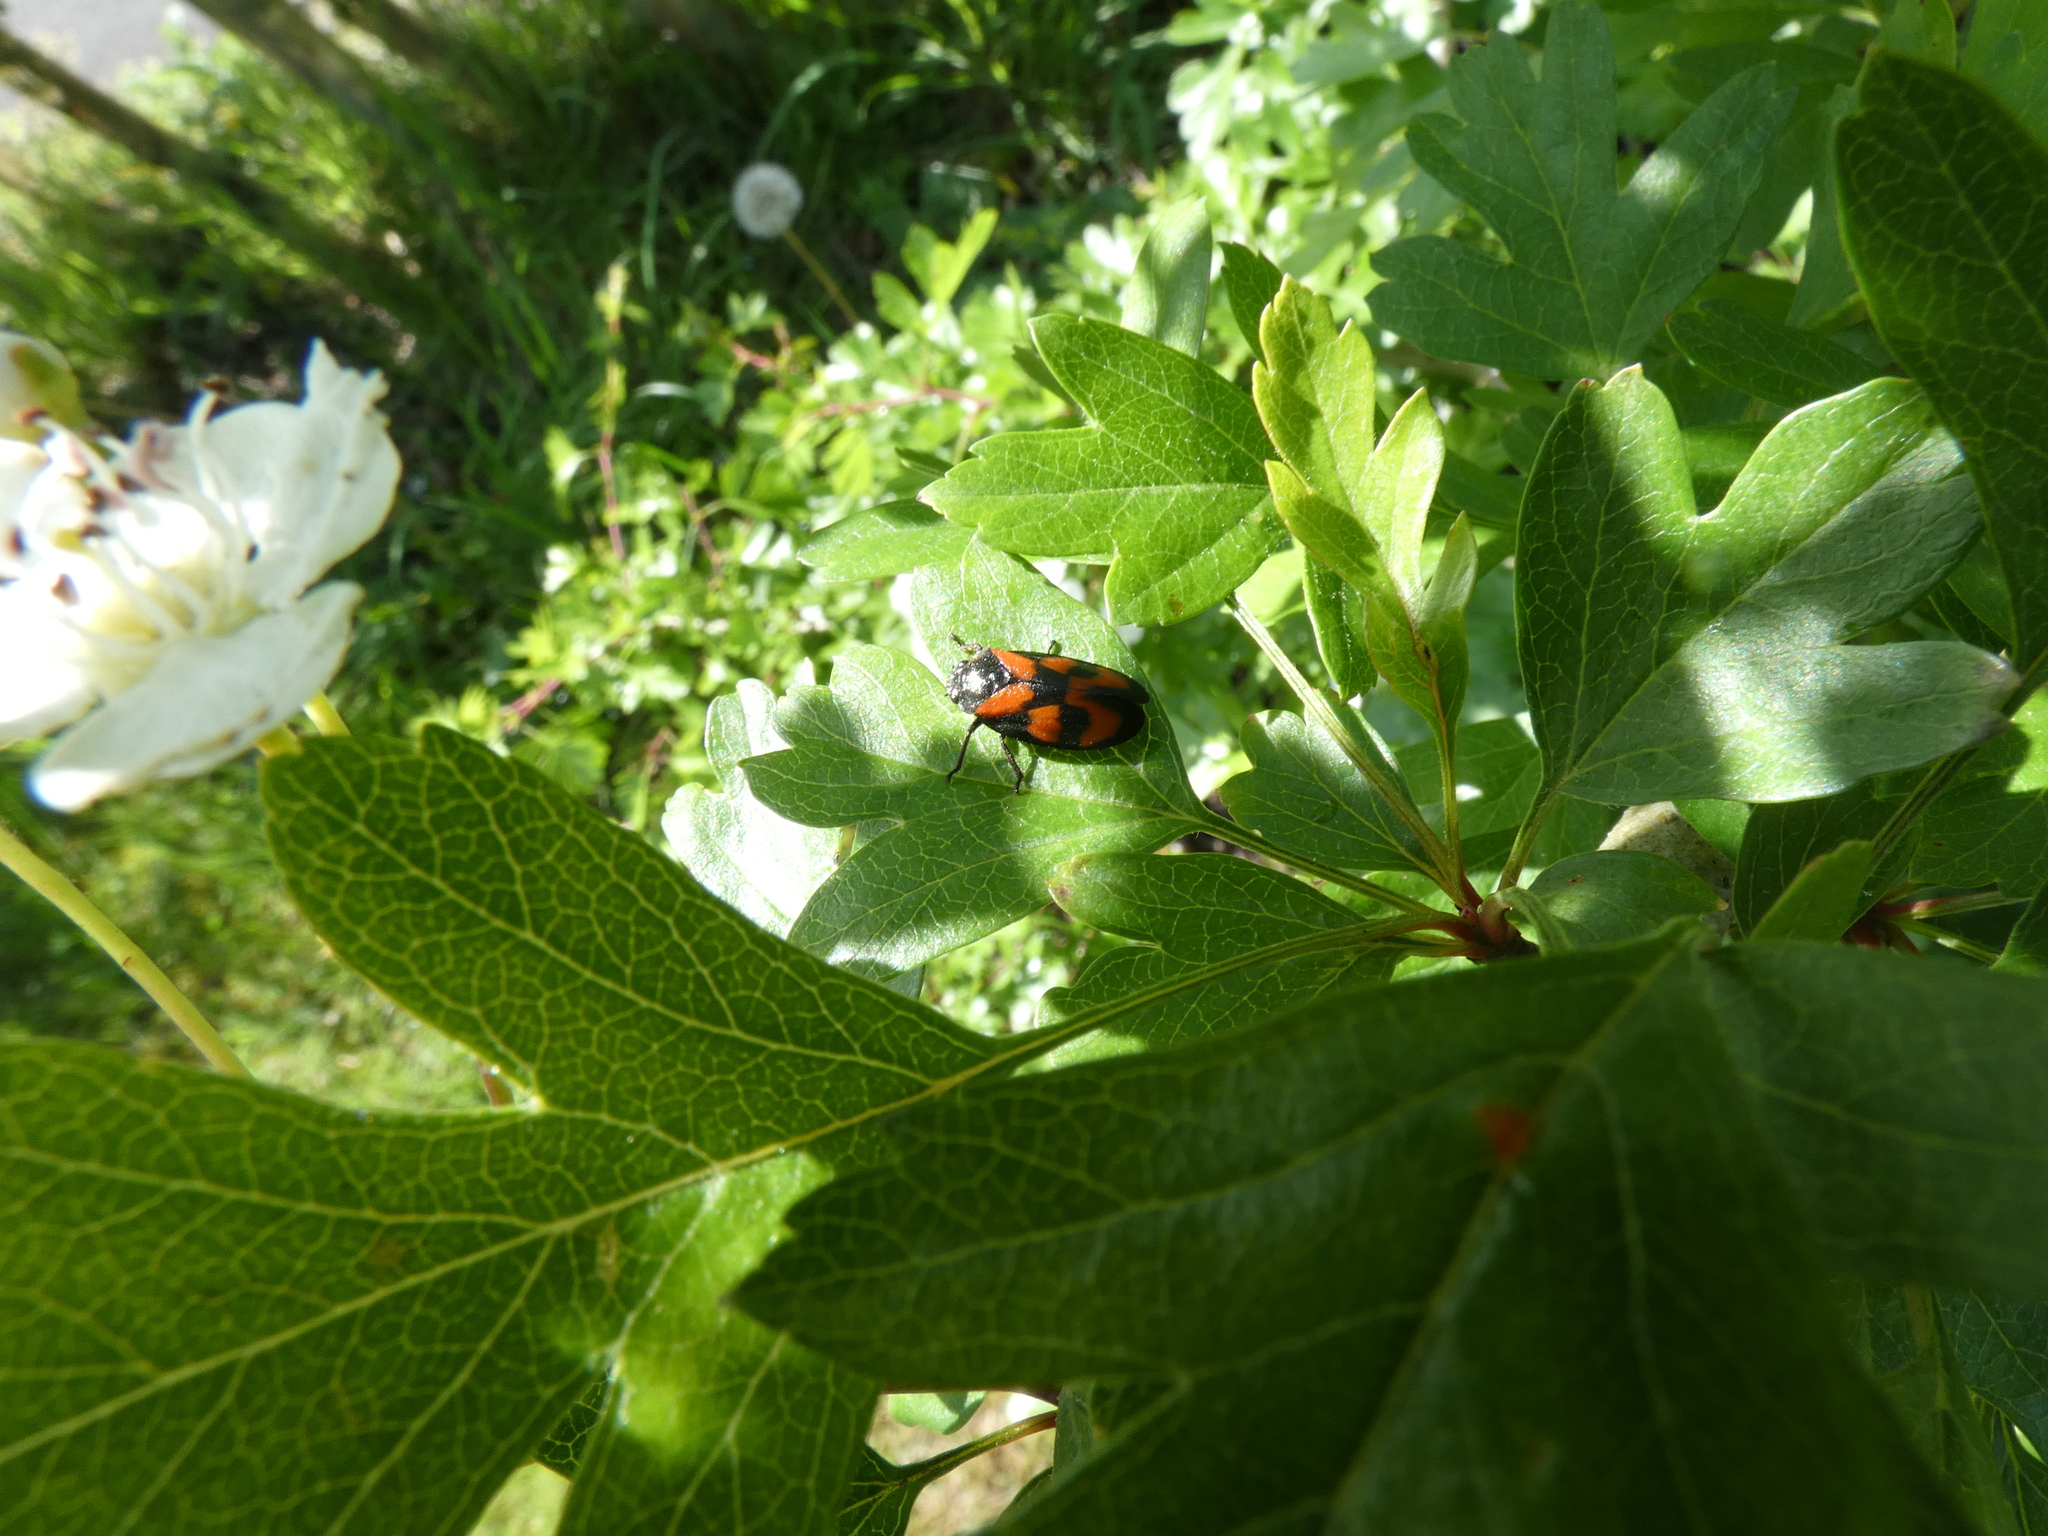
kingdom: Animalia
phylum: Arthropoda
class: Insecta
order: Hemiptera
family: Cercopidae
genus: Cercopis
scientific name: Cercopis vulnerata
